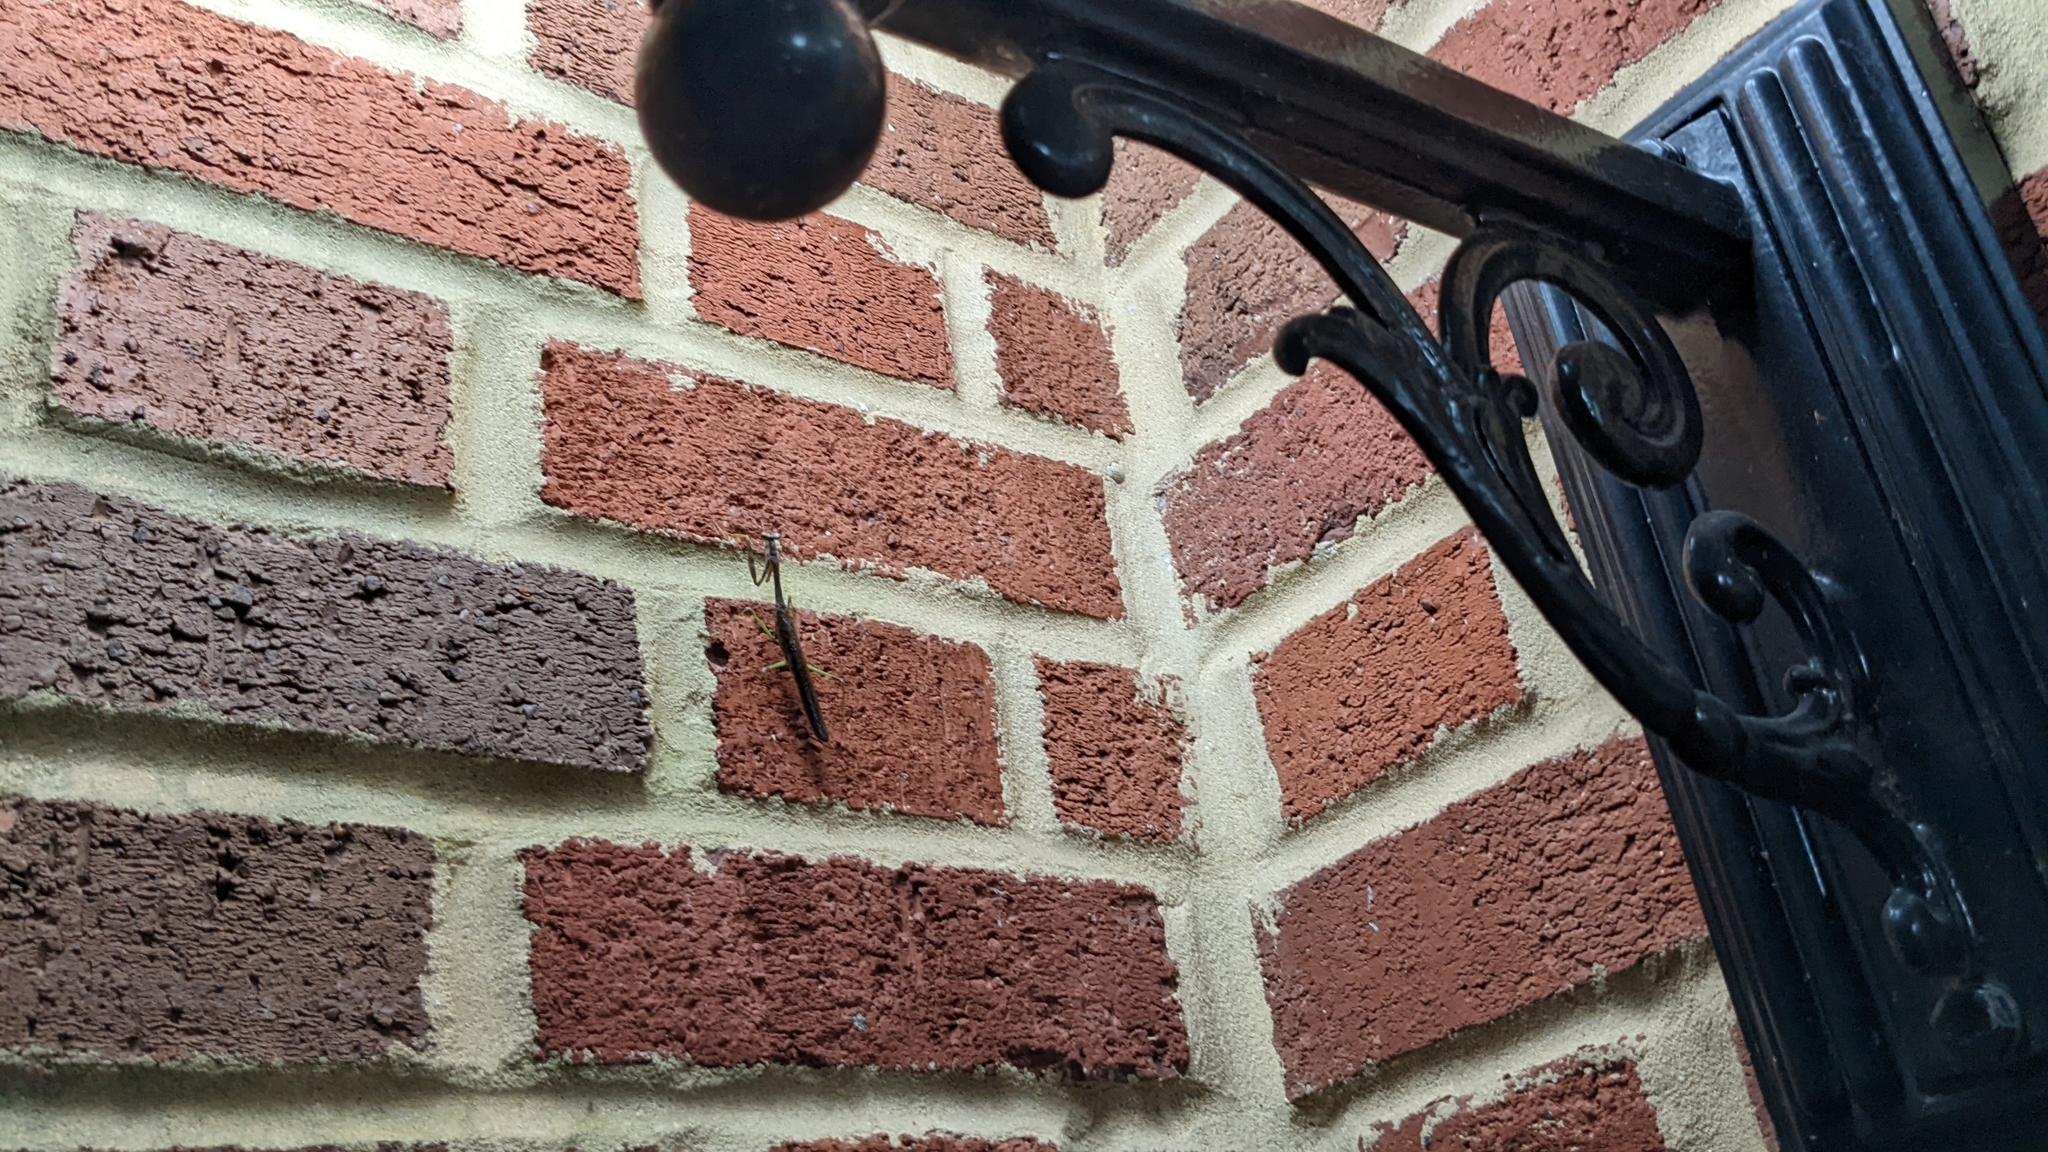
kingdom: Animalia
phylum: Arthropoda
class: Insecta
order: Mantodea
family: Mantidae
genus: Stagmomantis
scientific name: Stagmomantis carolina
